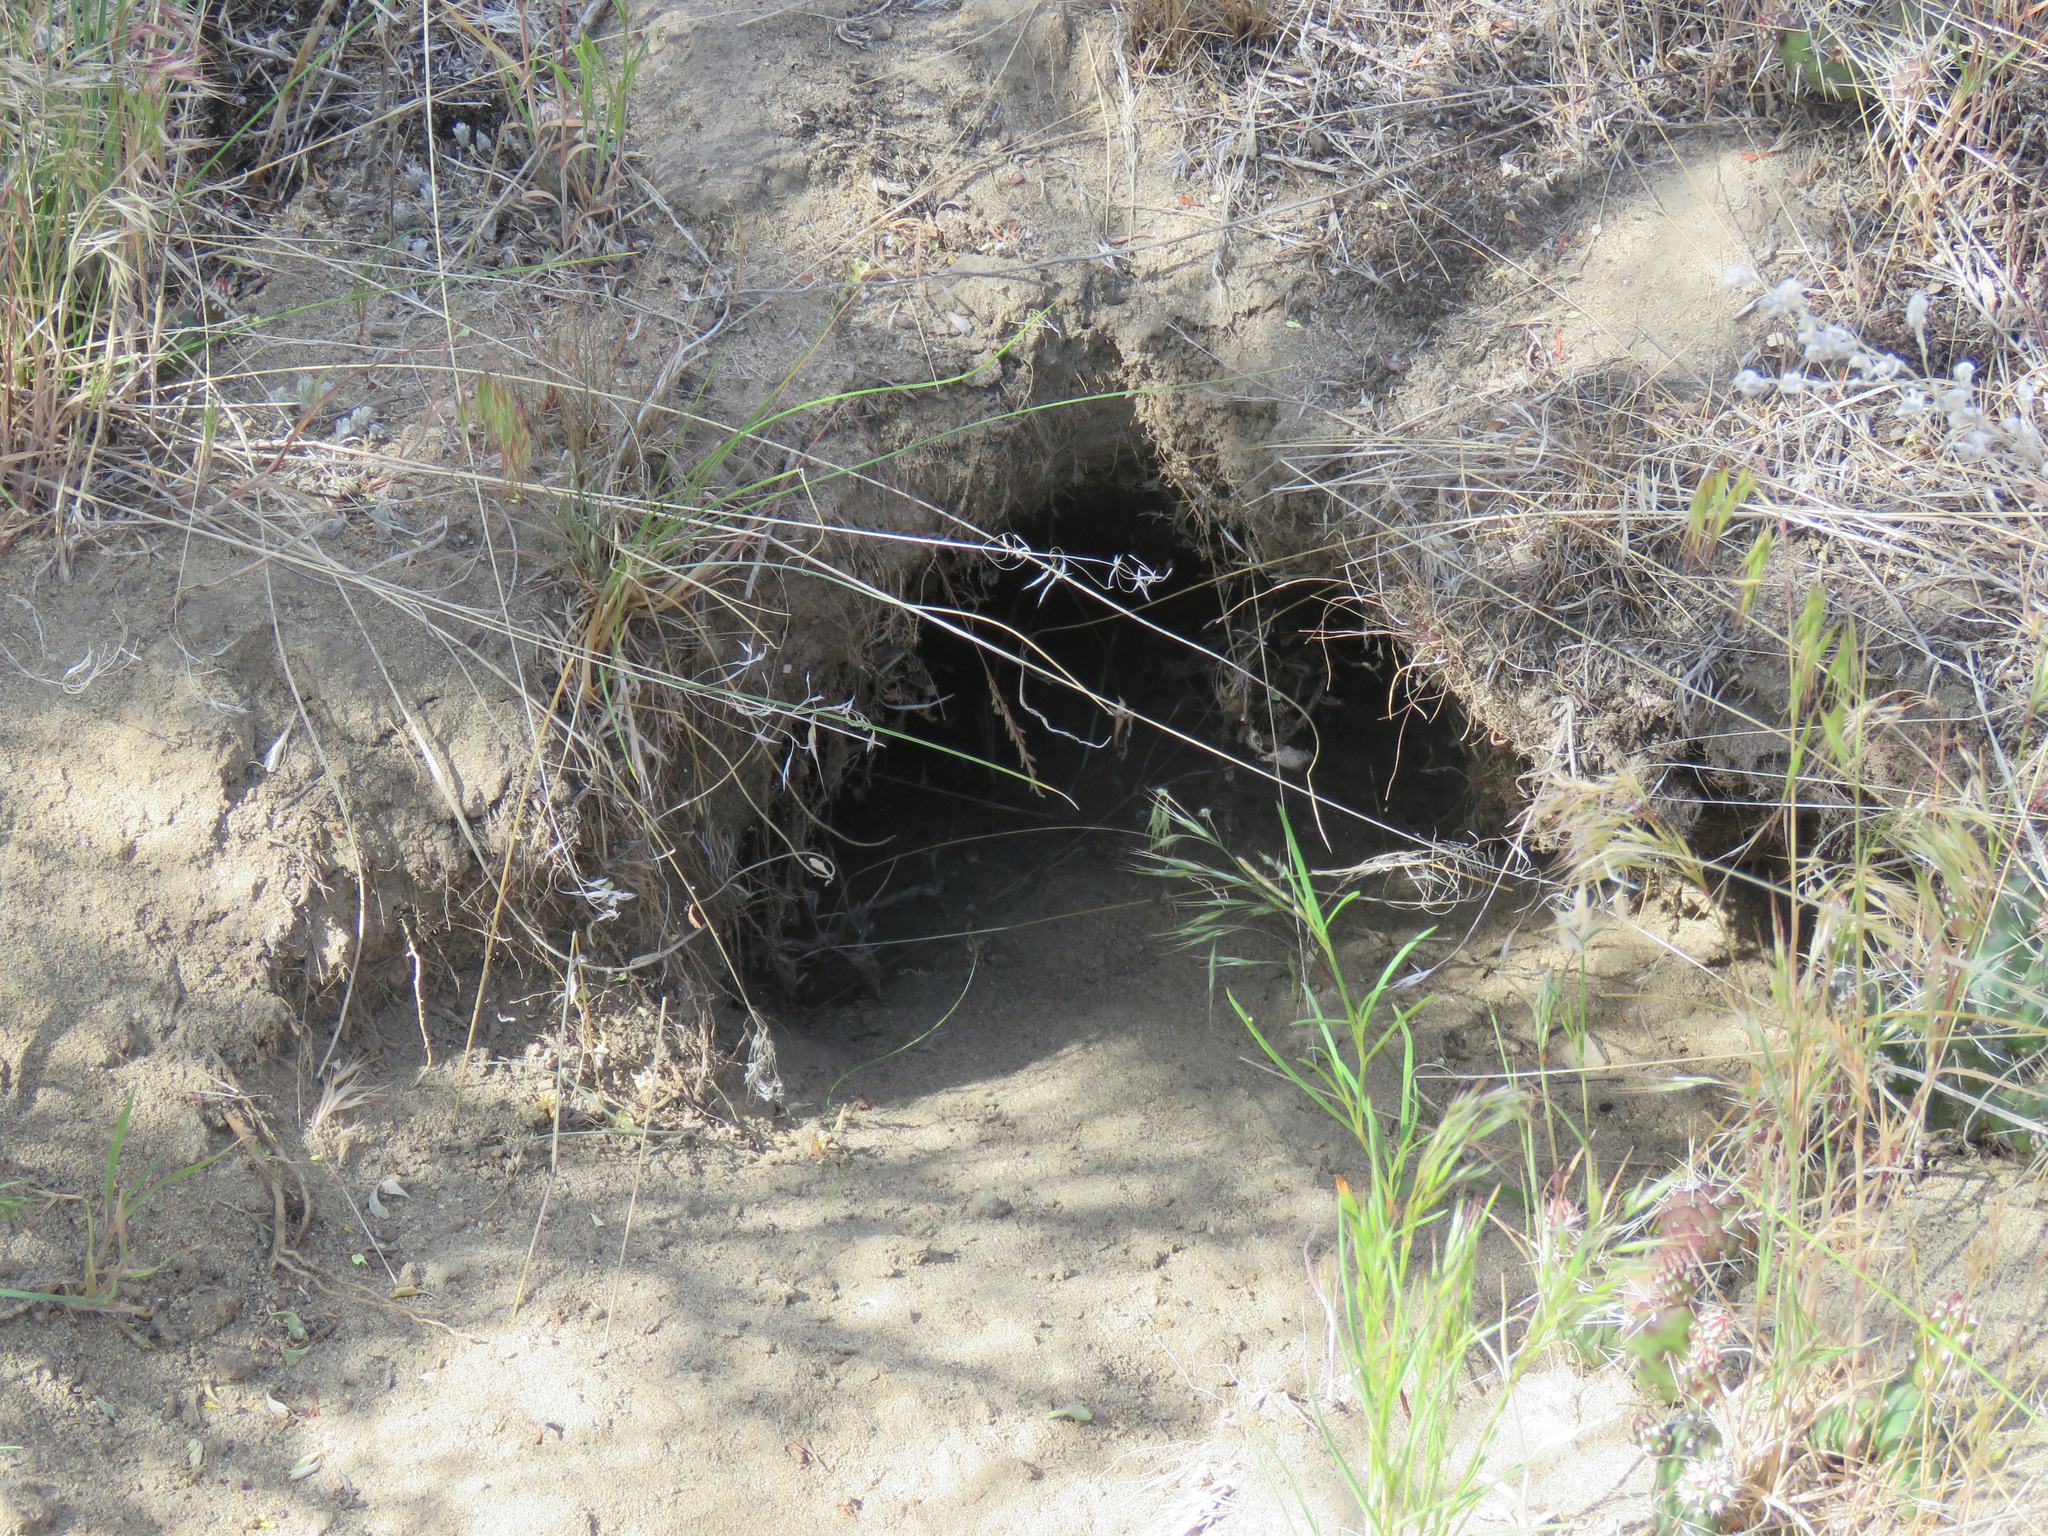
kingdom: Animalia
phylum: Chordata
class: Mammalia
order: Carnivora
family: Mustelidae
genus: Taxidea
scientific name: Taxidea taxus
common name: American badger
